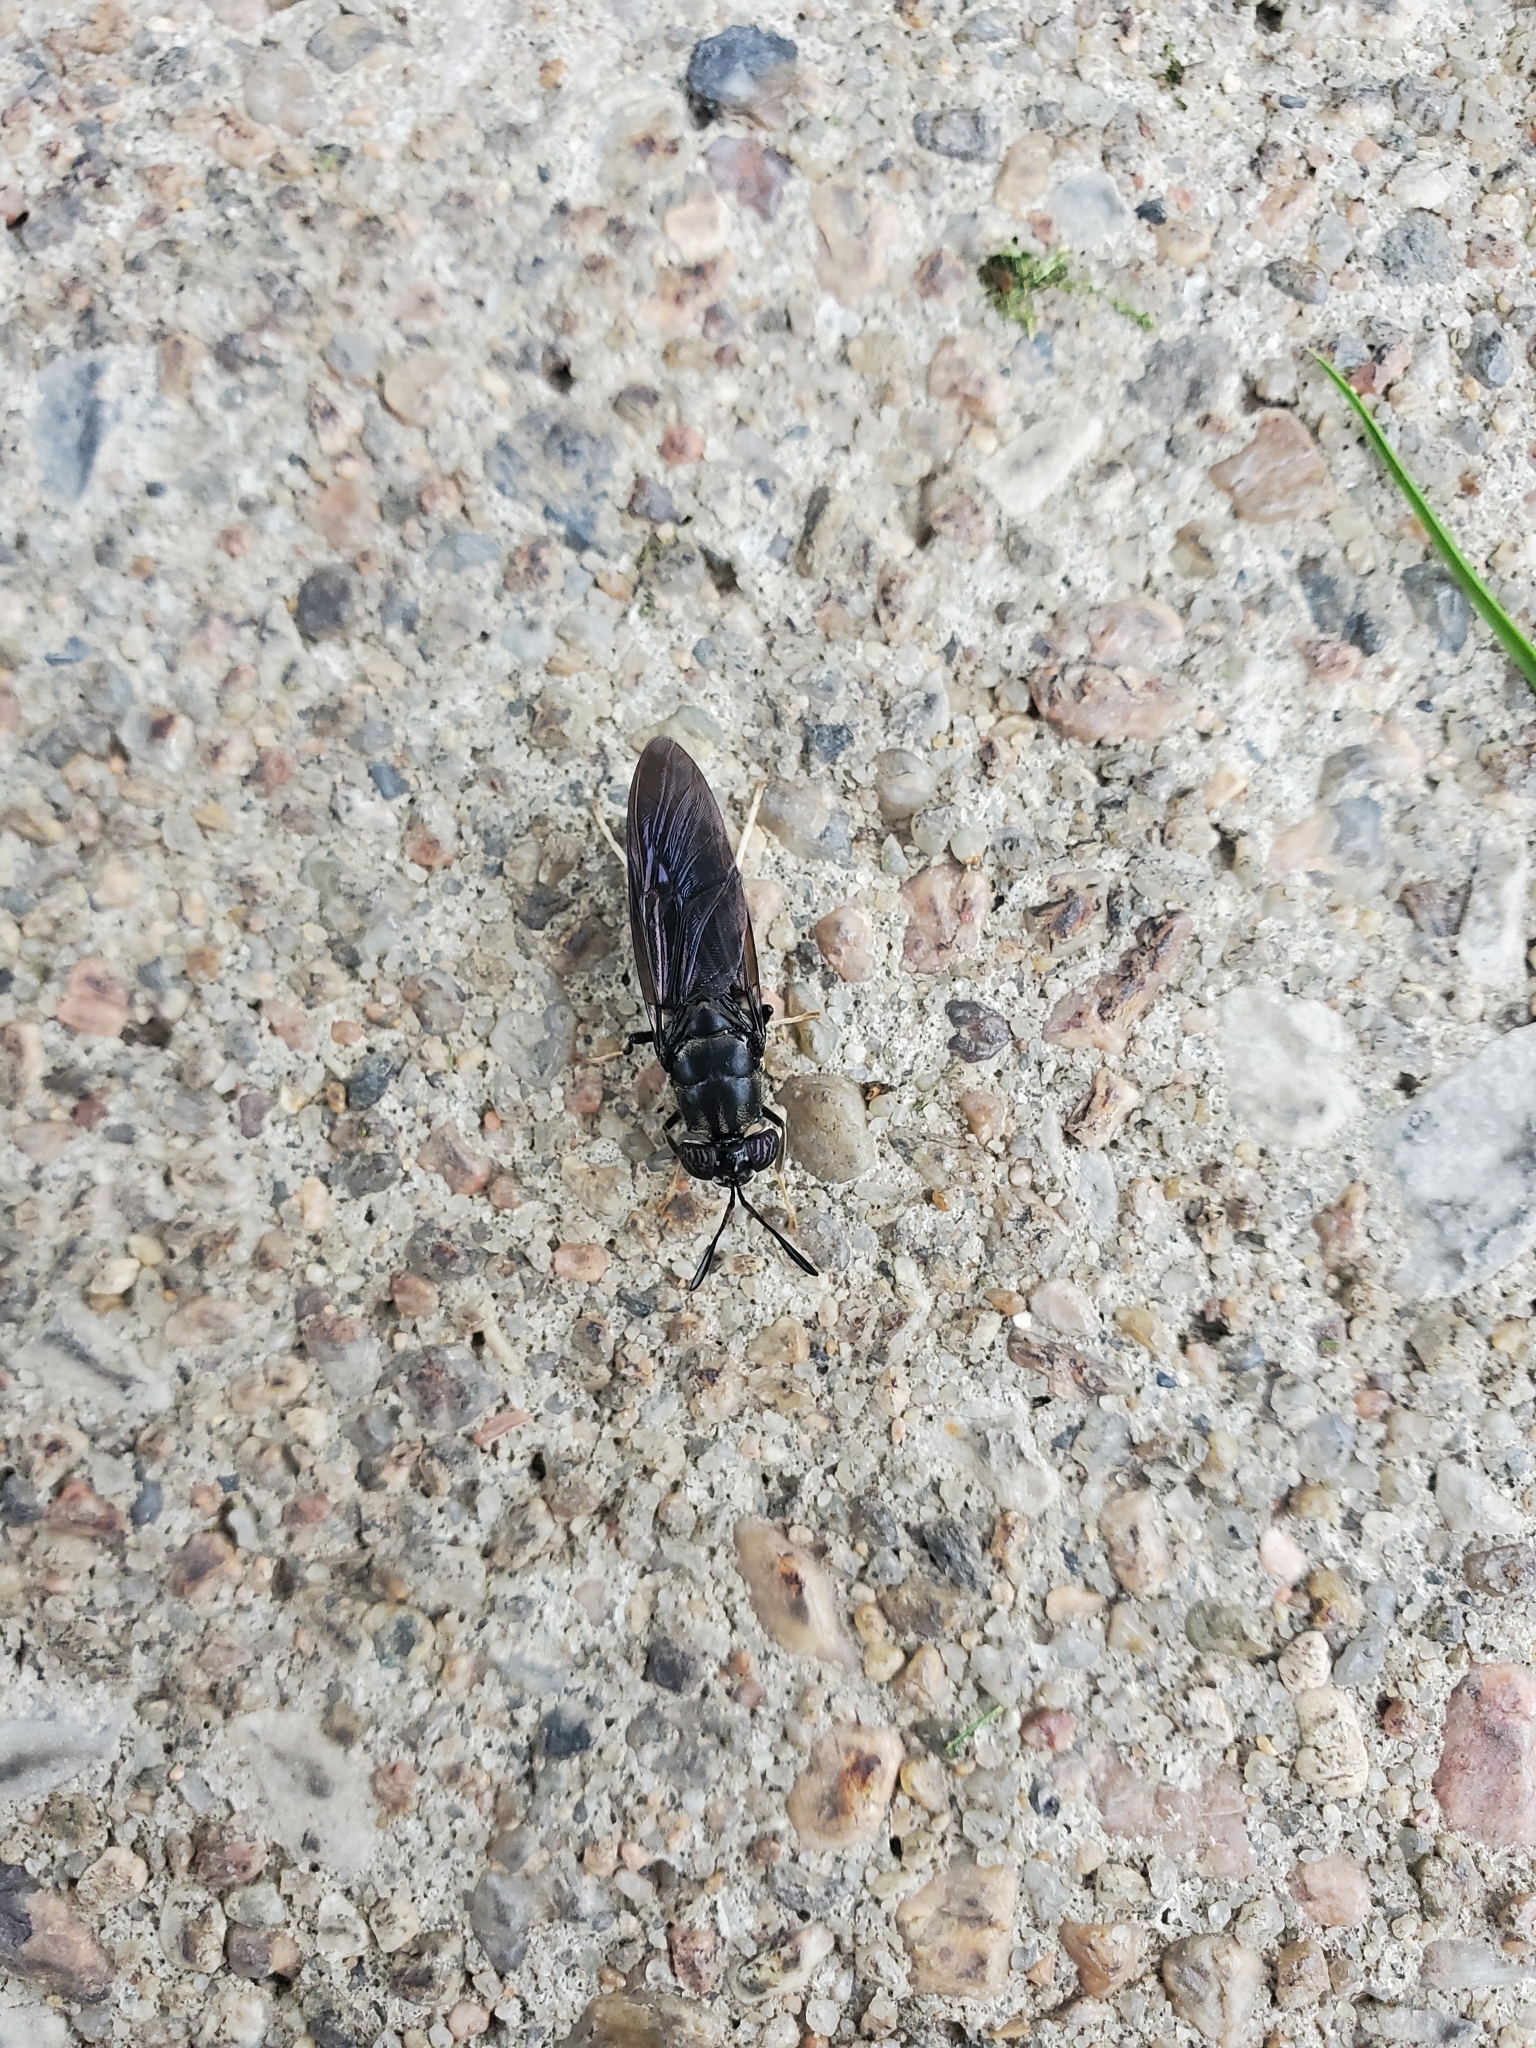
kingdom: Animalia
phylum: Arthropoda
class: Insecta
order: Diptera
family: Stratiomyidae
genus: Hermetia
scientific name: Hermetia illucens
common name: Black soldier fly
